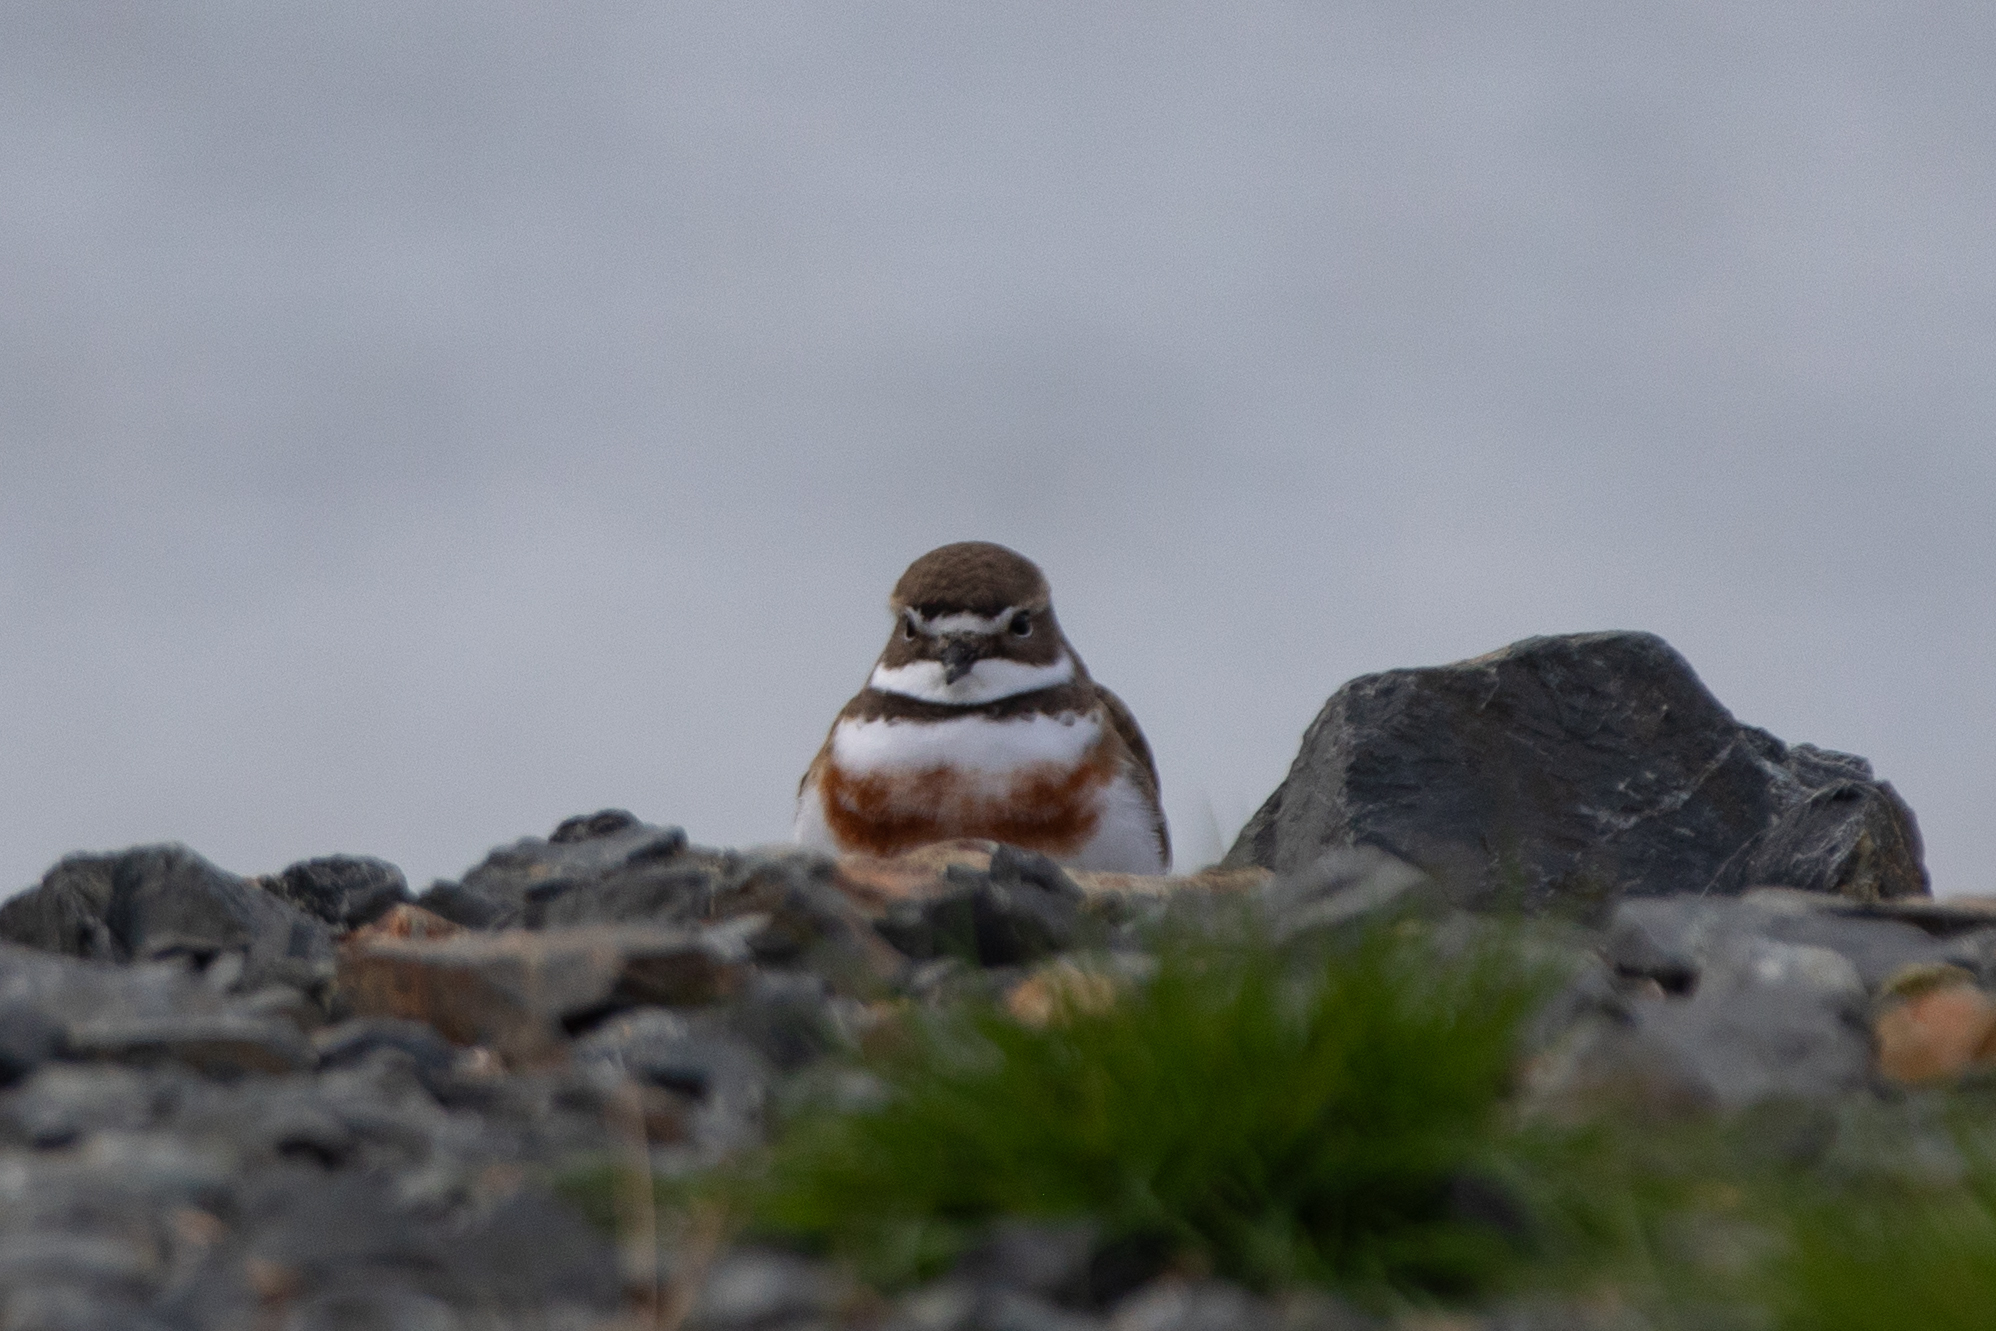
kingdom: Animalia
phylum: Chordata
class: Aves
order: Charadriiformes
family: Charadriidae
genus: Anarhynchus
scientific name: Anarhynchus
